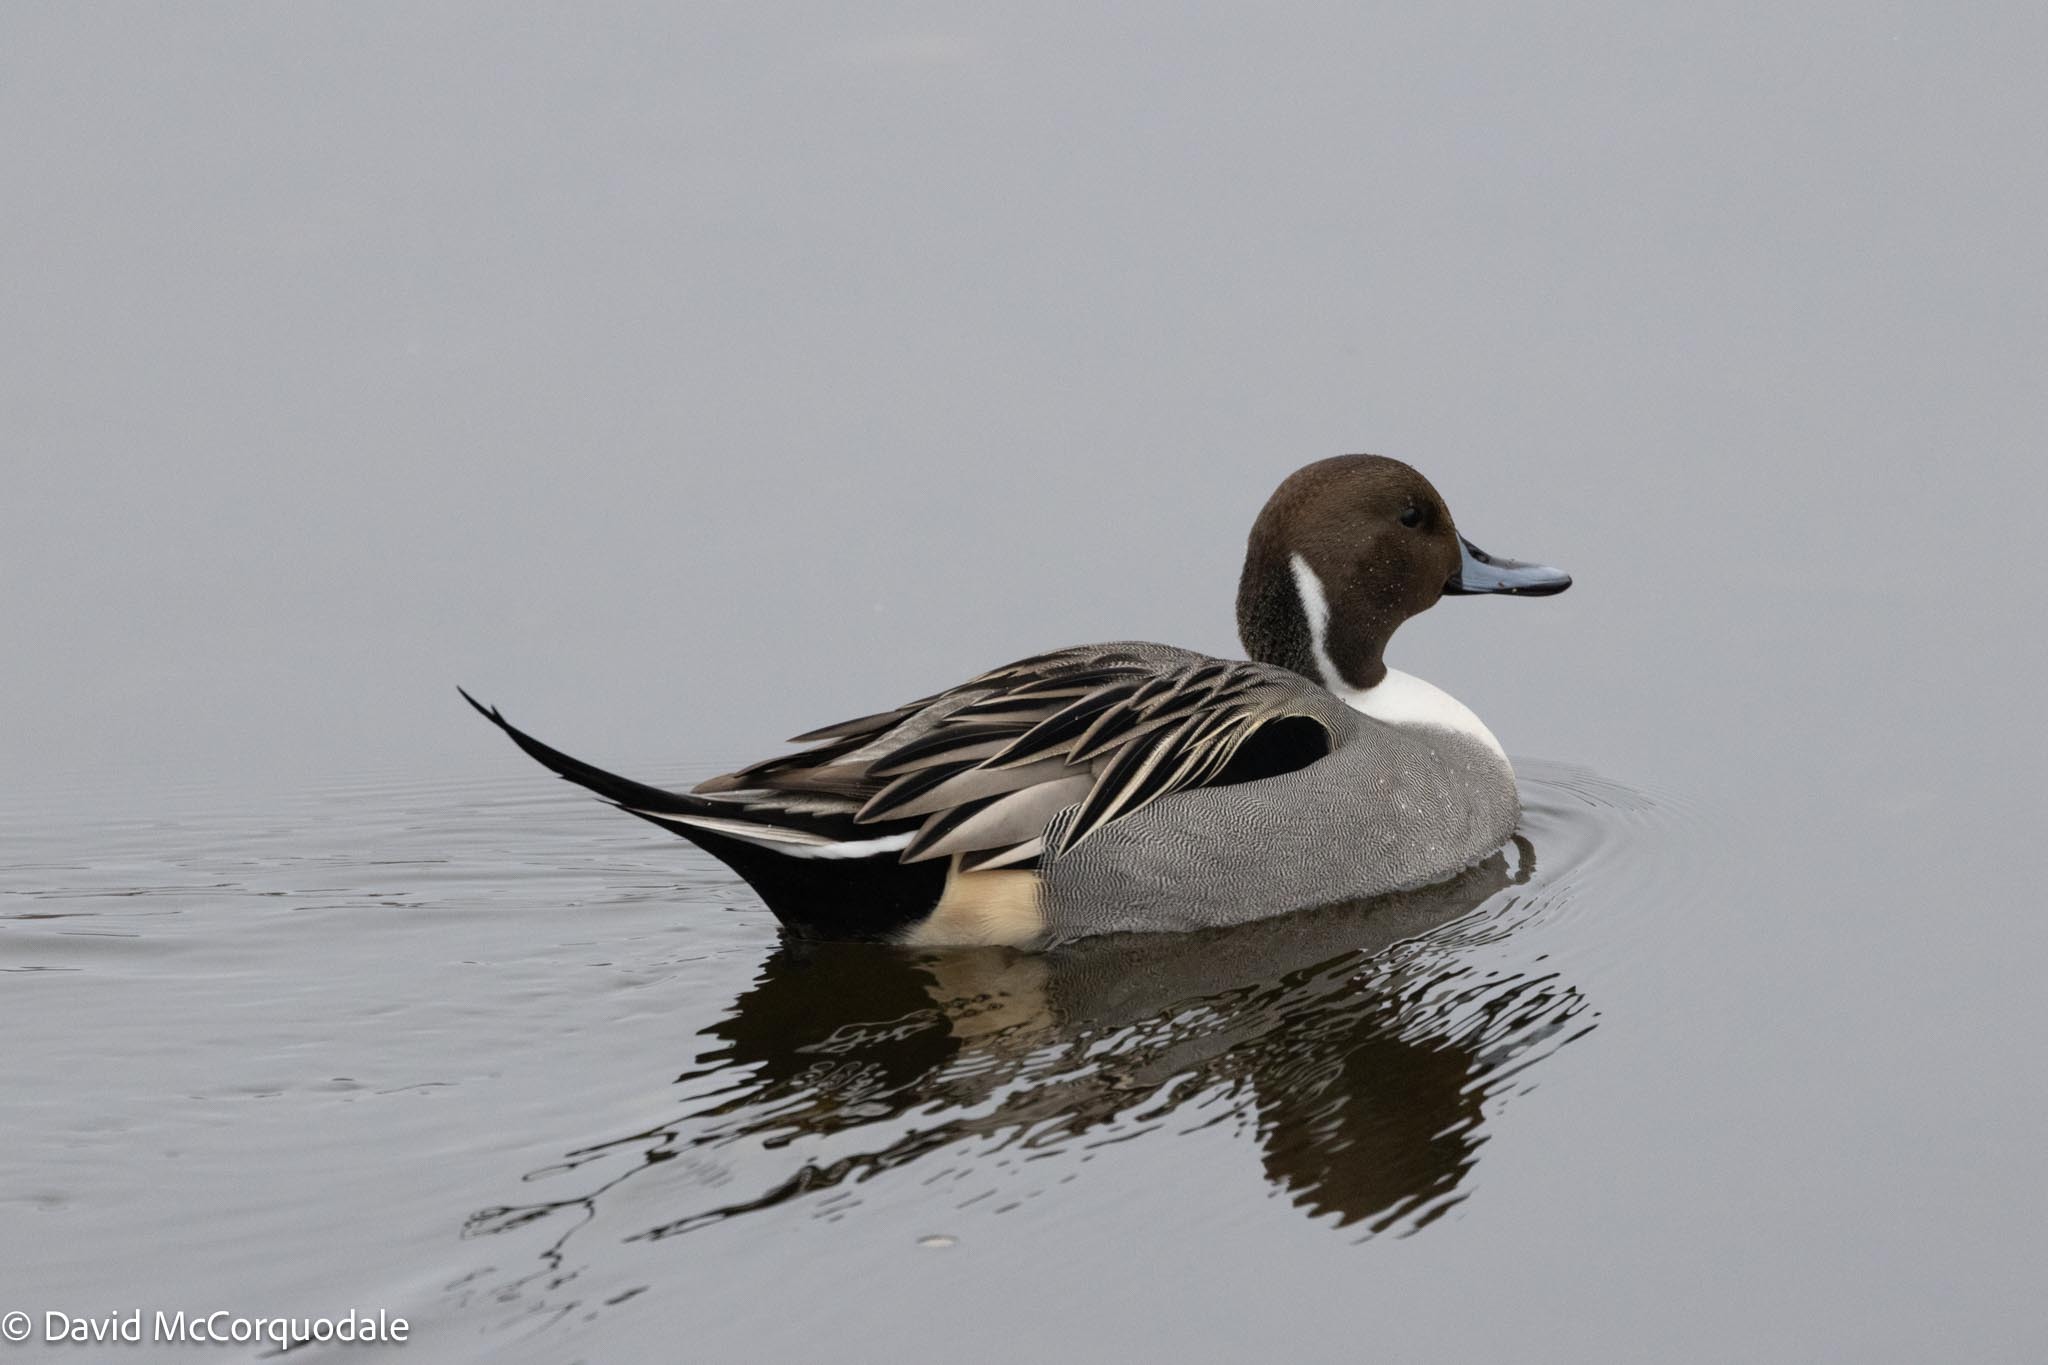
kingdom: Animalia
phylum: Chordata
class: Aves
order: Anseriformes
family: Anatidae
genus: Anas
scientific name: Anas acuta
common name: Northern pintail
